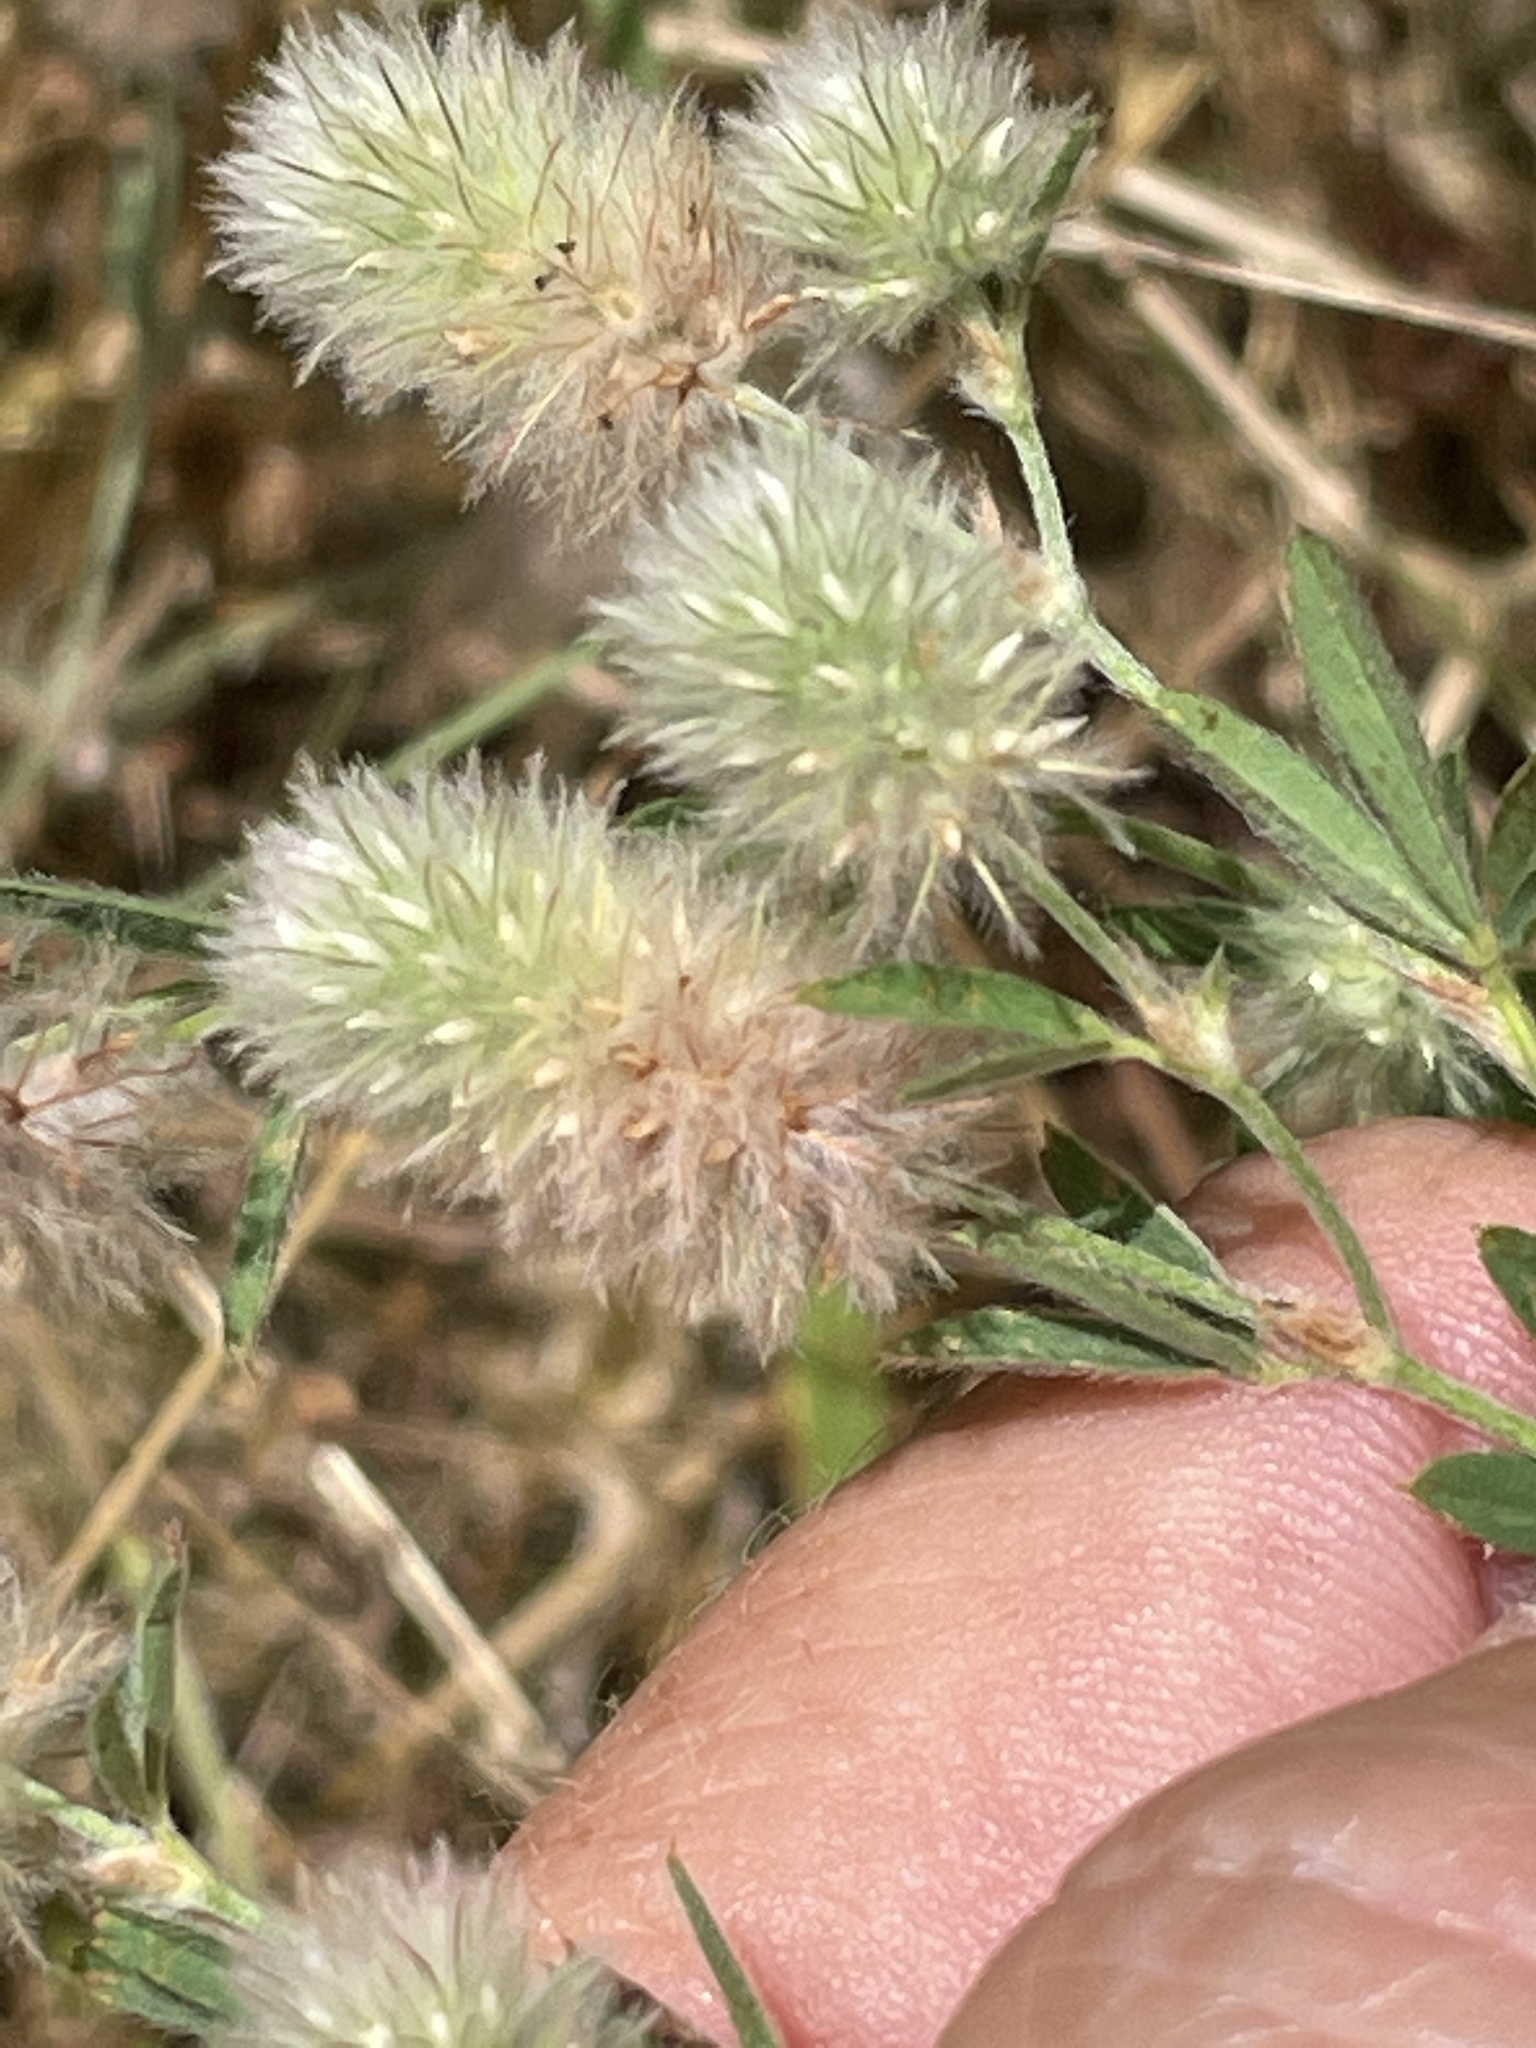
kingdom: Plantae
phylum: Tracheophyta
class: Magnoliopsida
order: Fabales
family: Fabaceae
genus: Trifolium
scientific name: Trifolium arvense
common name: Hare's-foot clover
